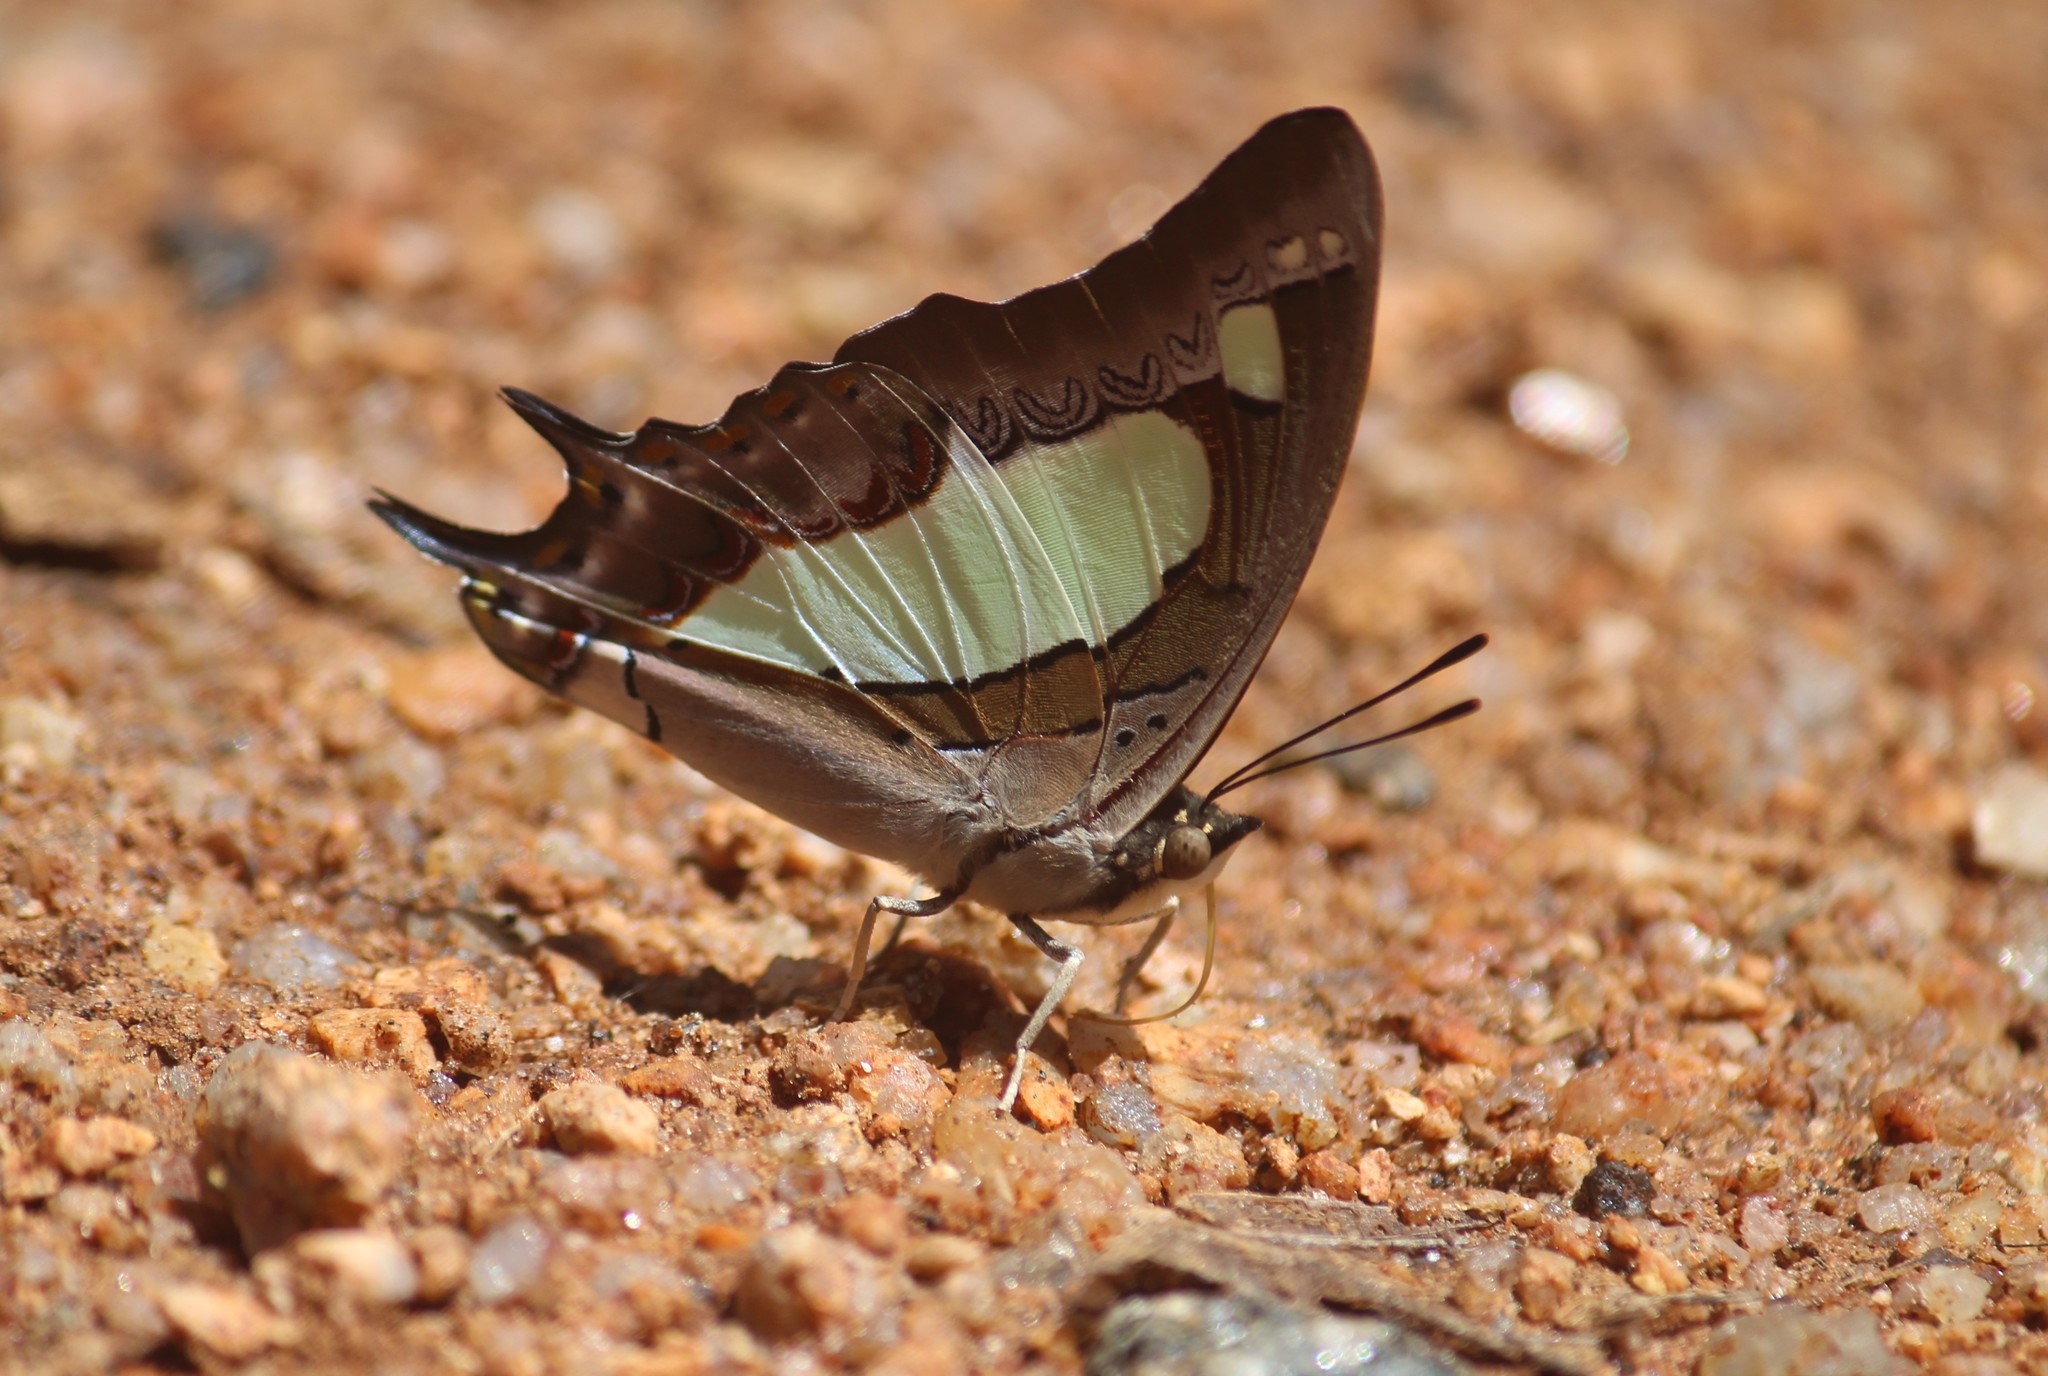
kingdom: Animalia
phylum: Arthropoda
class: Insecta
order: Lepidoptera
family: Nymphalidae
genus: Polyura
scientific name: Polyura agrarius
